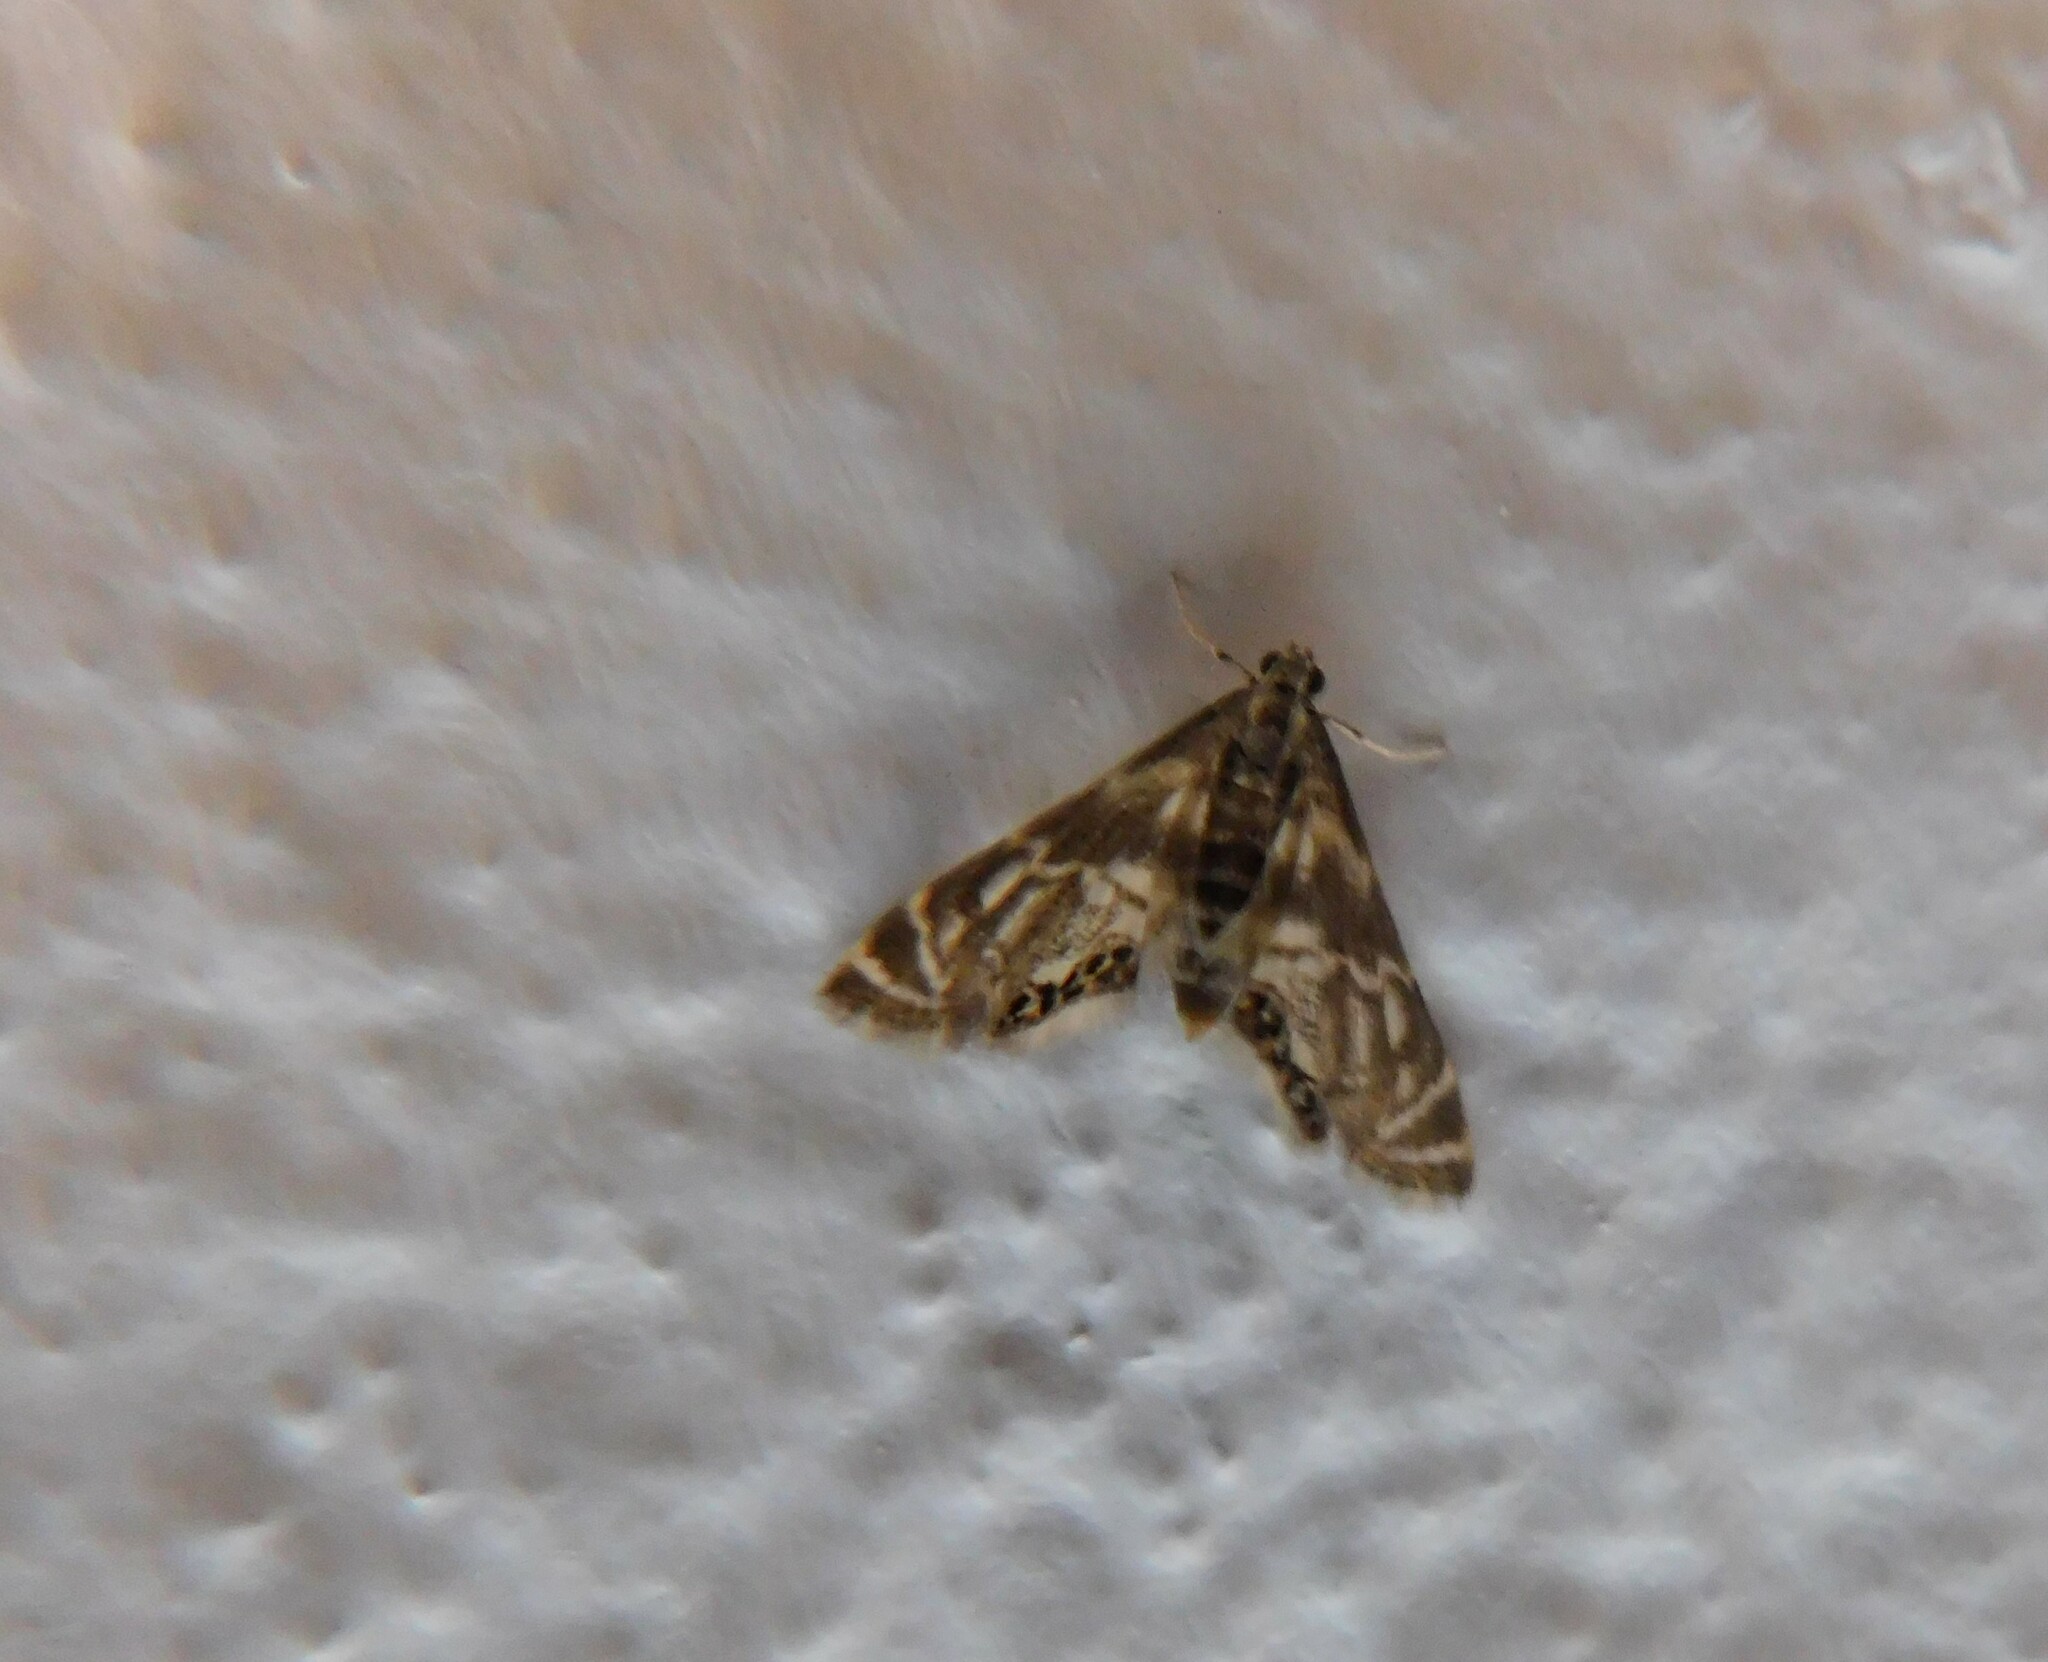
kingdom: Animalia
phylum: Arthropoda
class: Insecta
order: Lepidoptera
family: Crambidae
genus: Petrophila
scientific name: Petrophila canadensis
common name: Canadian petrophila
